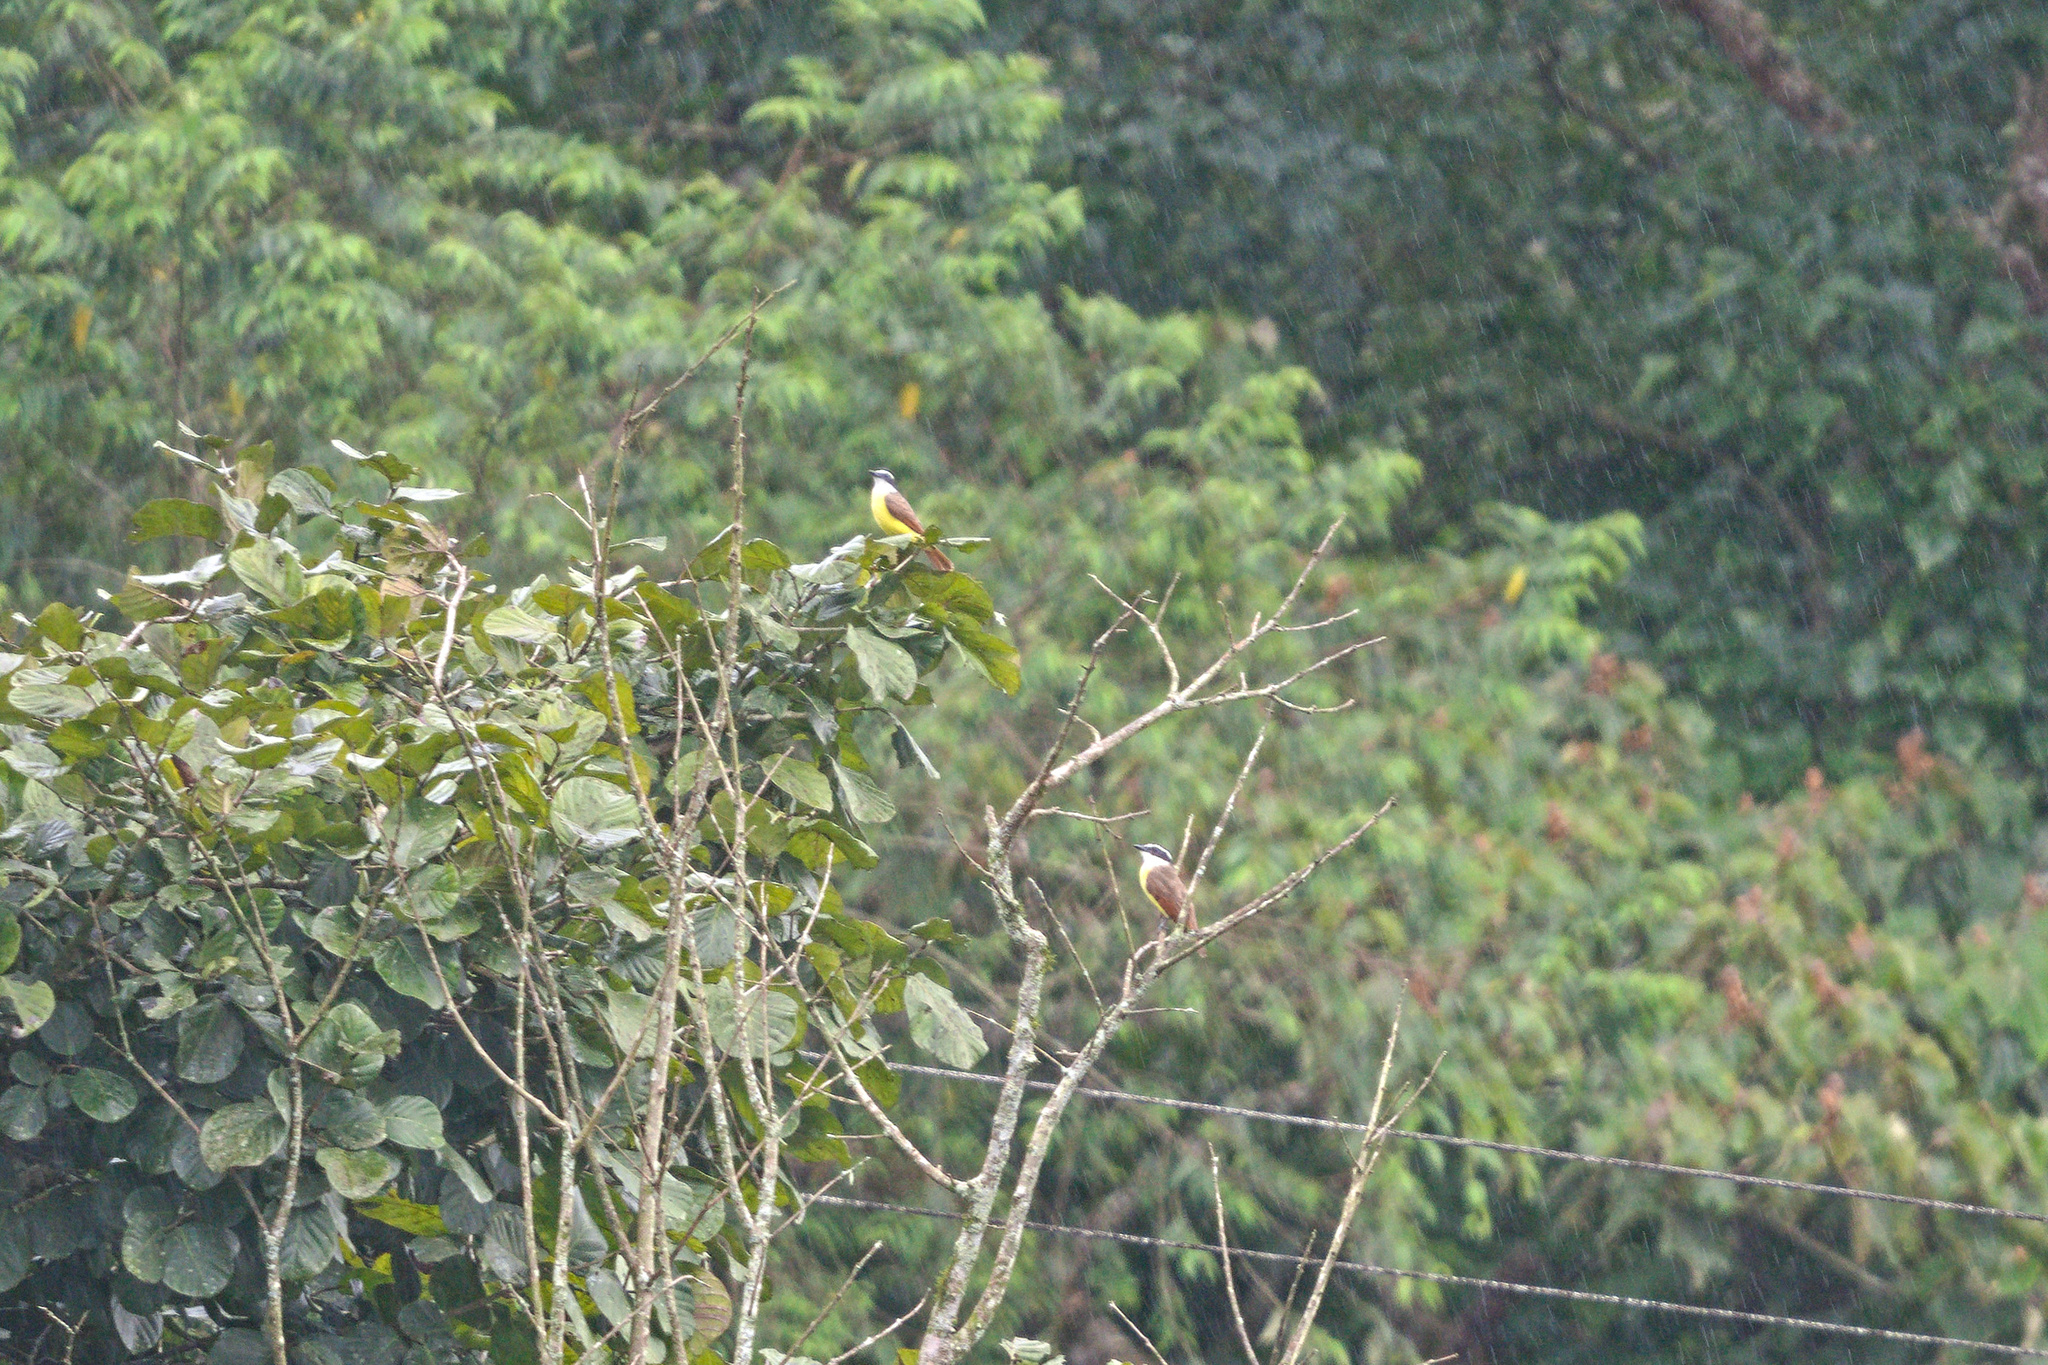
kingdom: Animalia
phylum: Chordata
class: Aves
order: Passeriformes
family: Tyrannidae
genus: Pitangus
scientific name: Pitangus sulphuratus
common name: Great kiskadee
